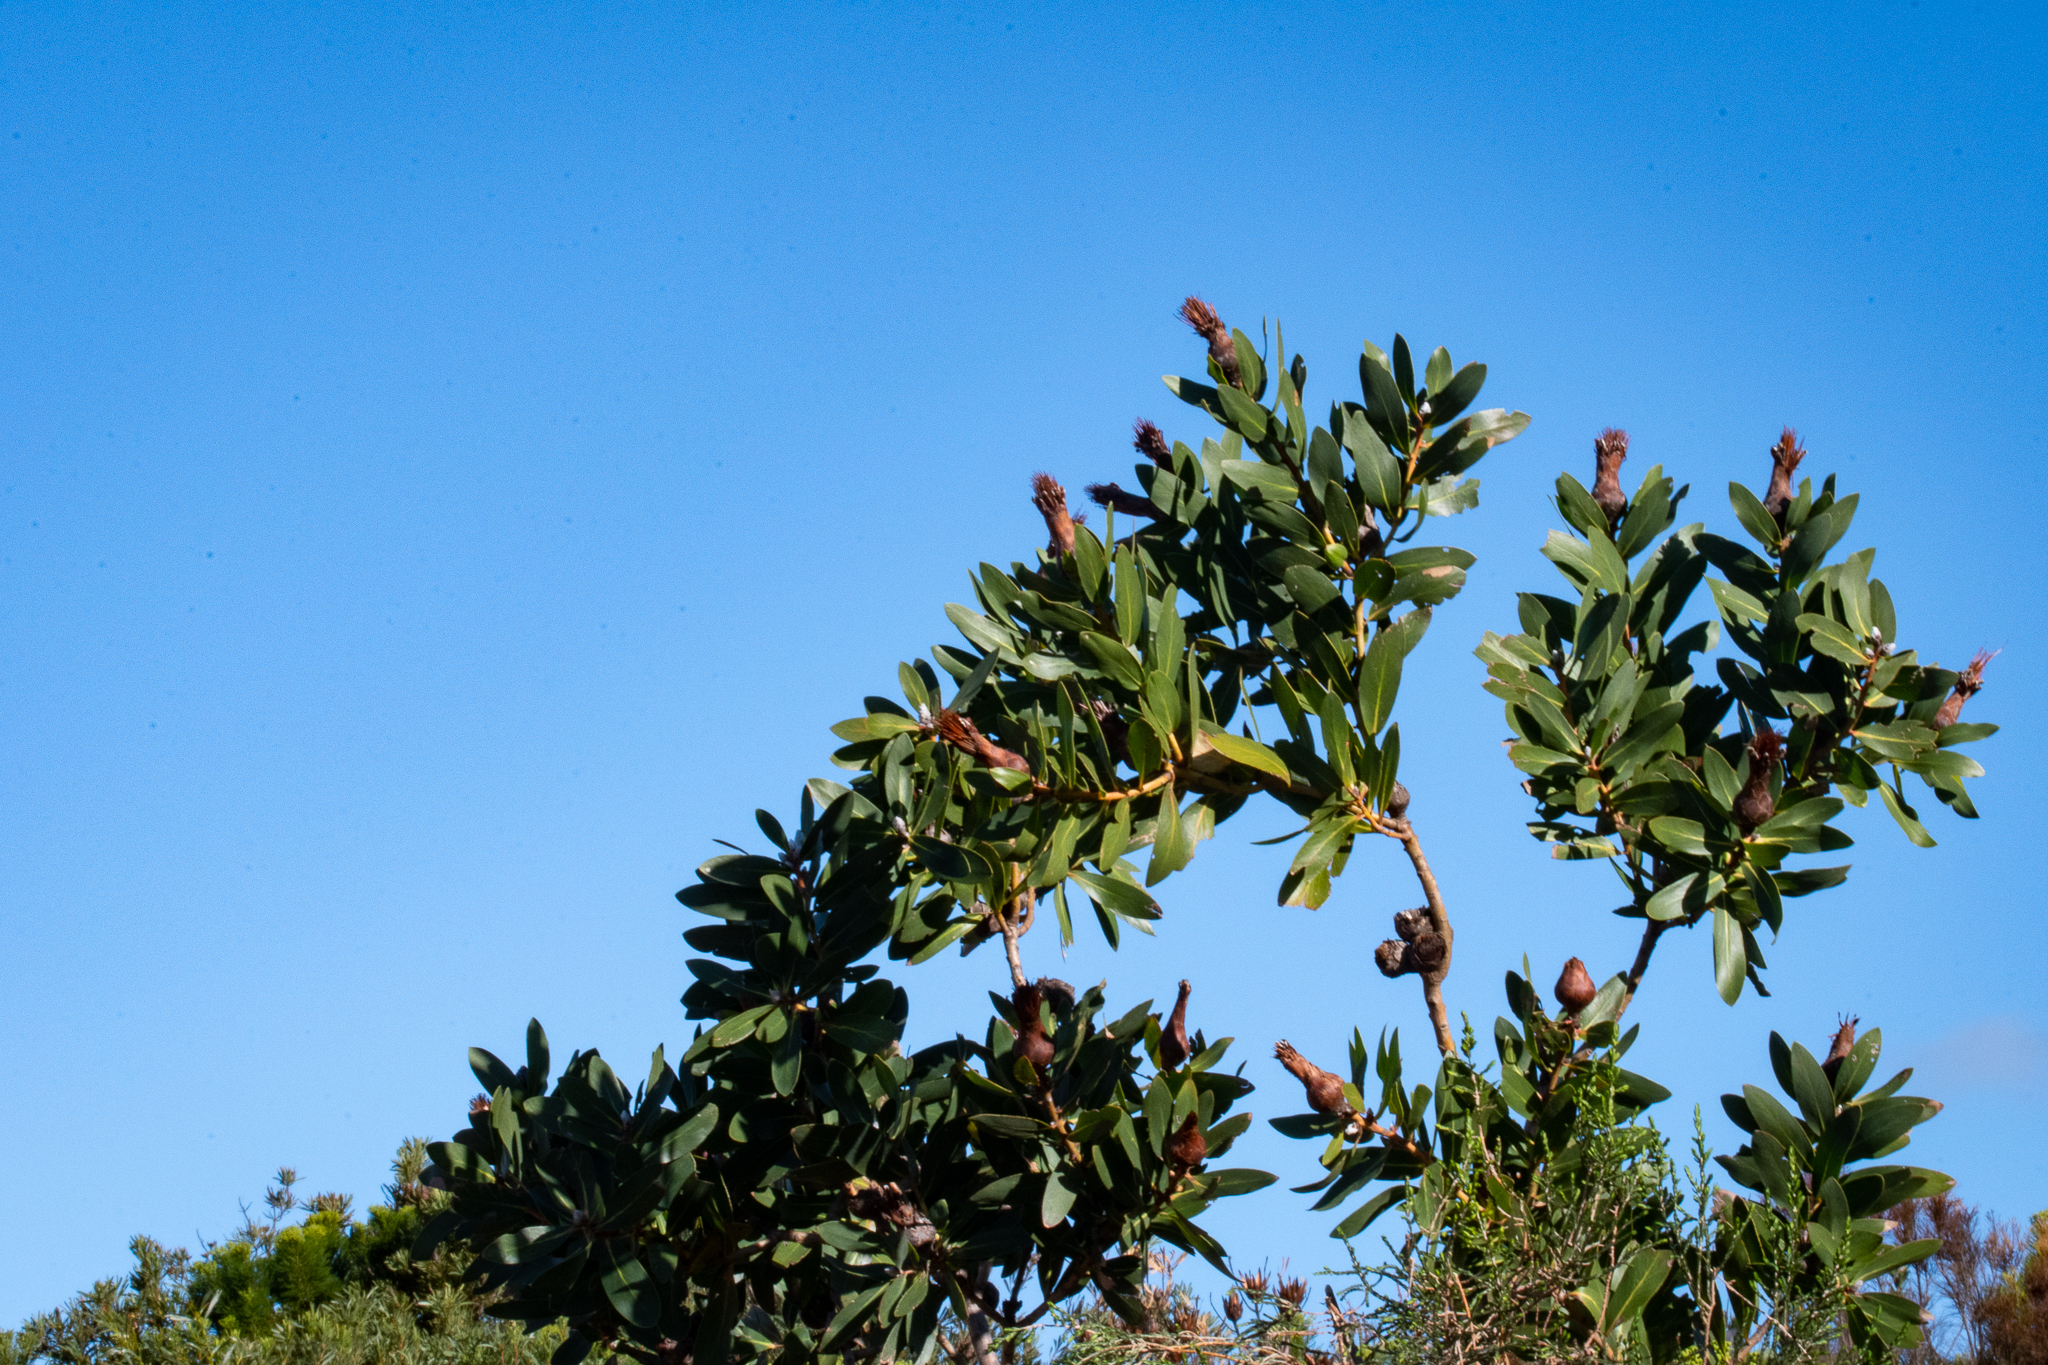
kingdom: Plantae
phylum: Tracheophyta
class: Magnoliopsida
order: Proteales
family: Proteaceae
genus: Protea
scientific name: Protea mundii
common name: Forest sugarbush
